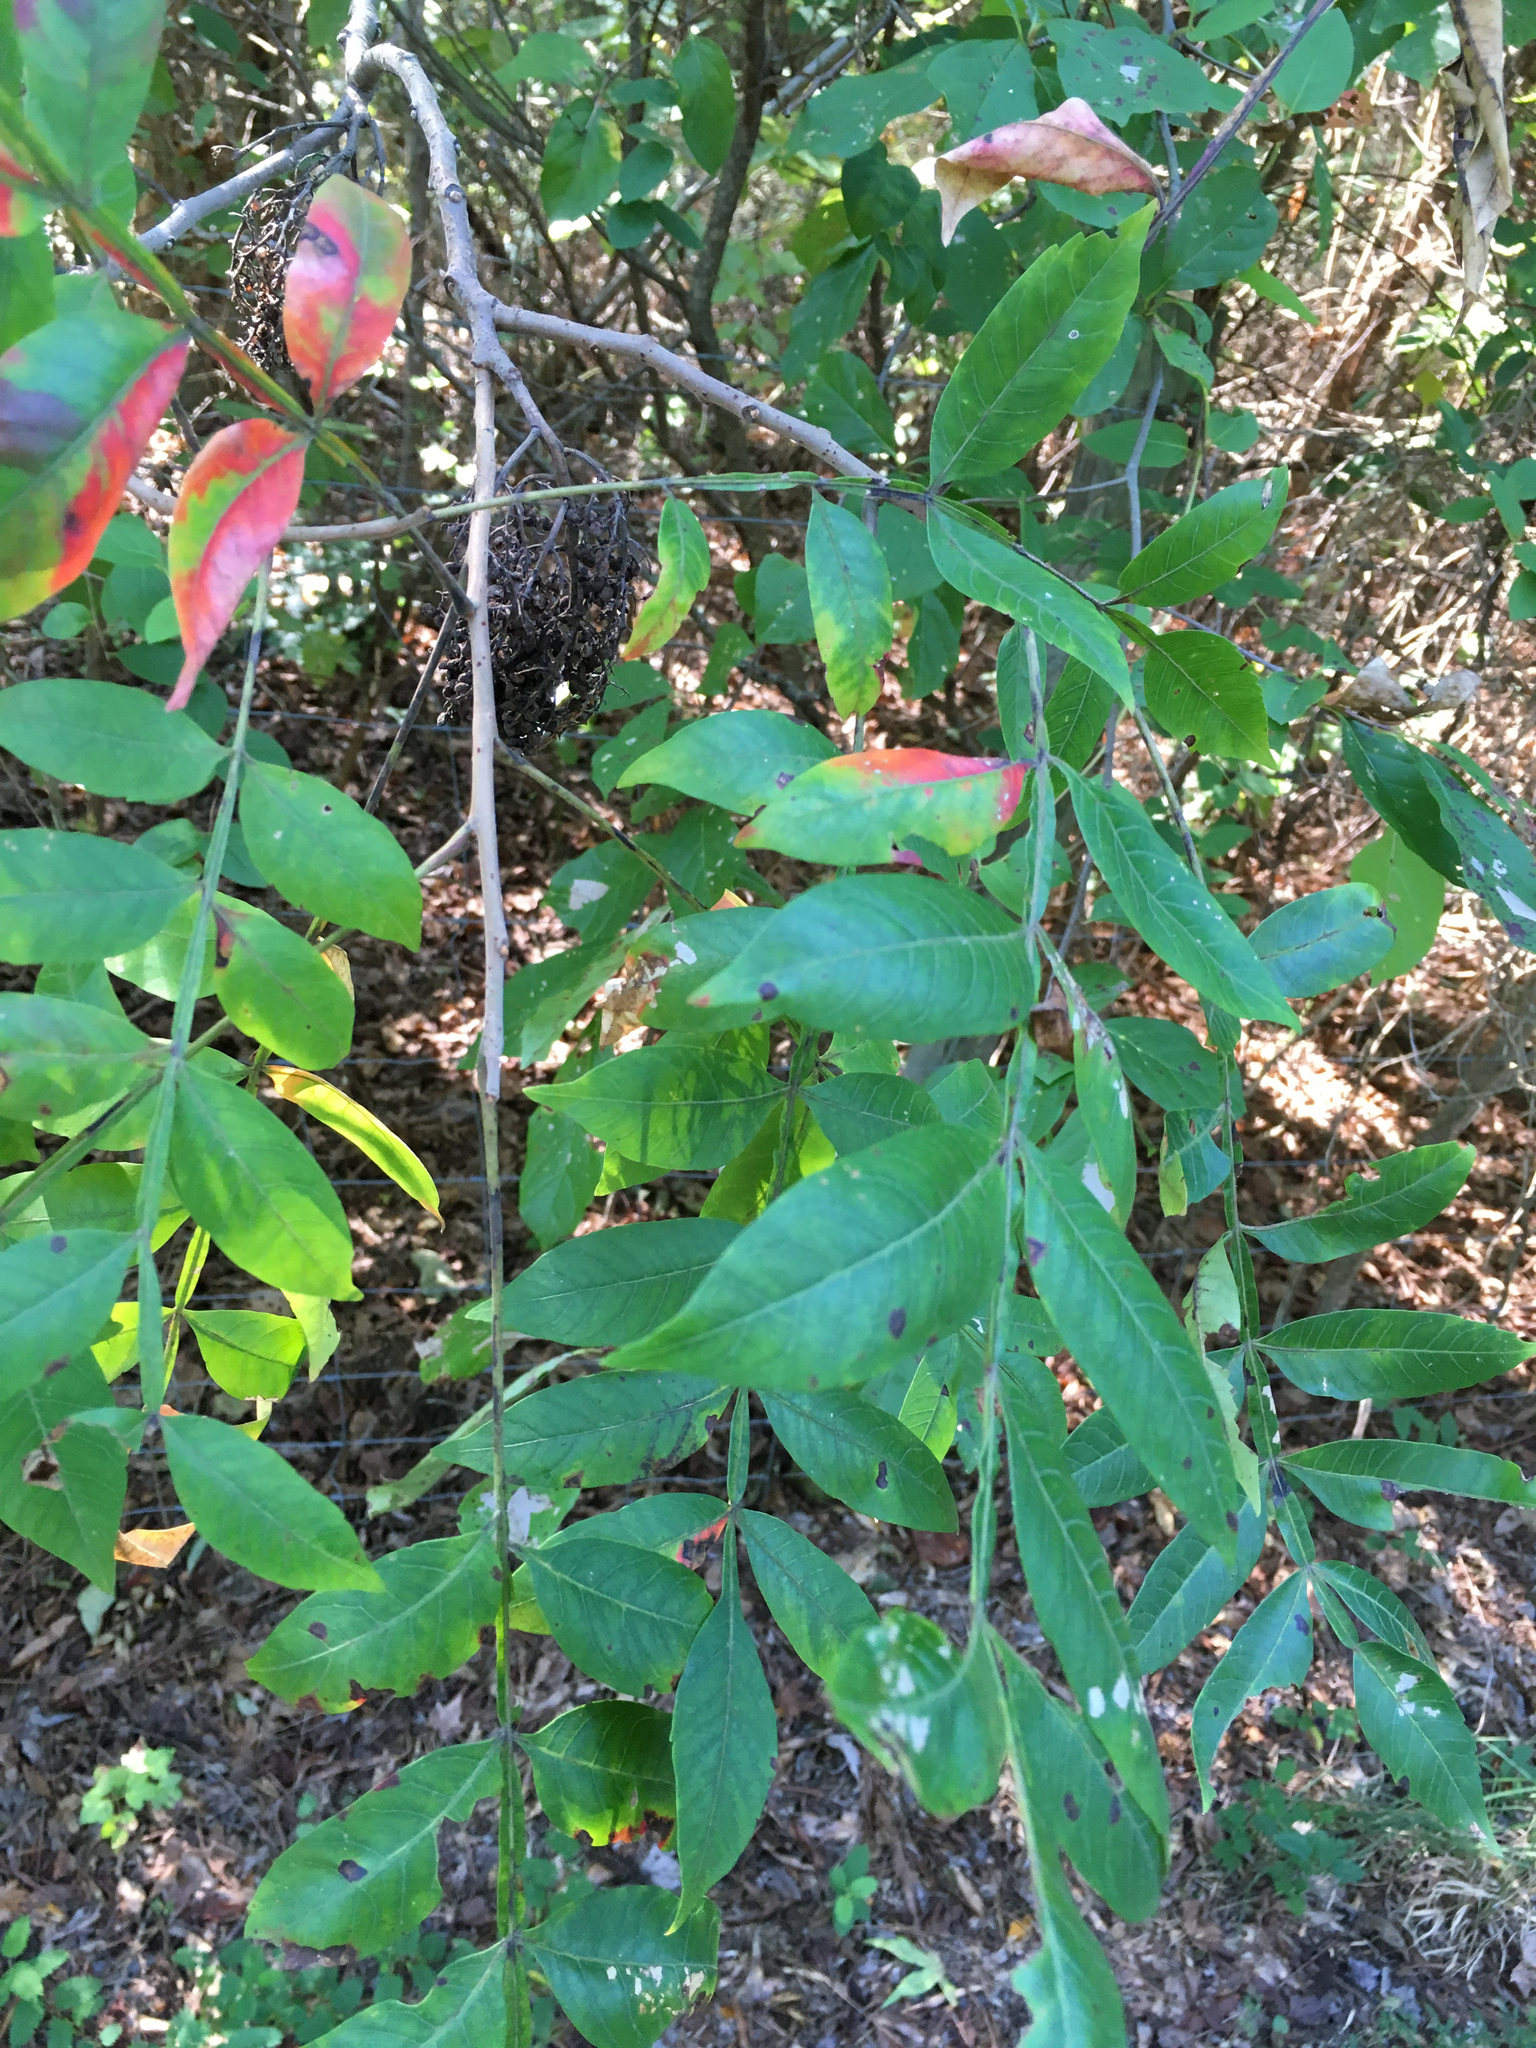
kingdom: Plantae
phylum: Tracheophyta
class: Magnoliopsida
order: Sapindales
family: Anacardiaceae
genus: Rhus
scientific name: Rhus copallina
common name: Shining sumac
